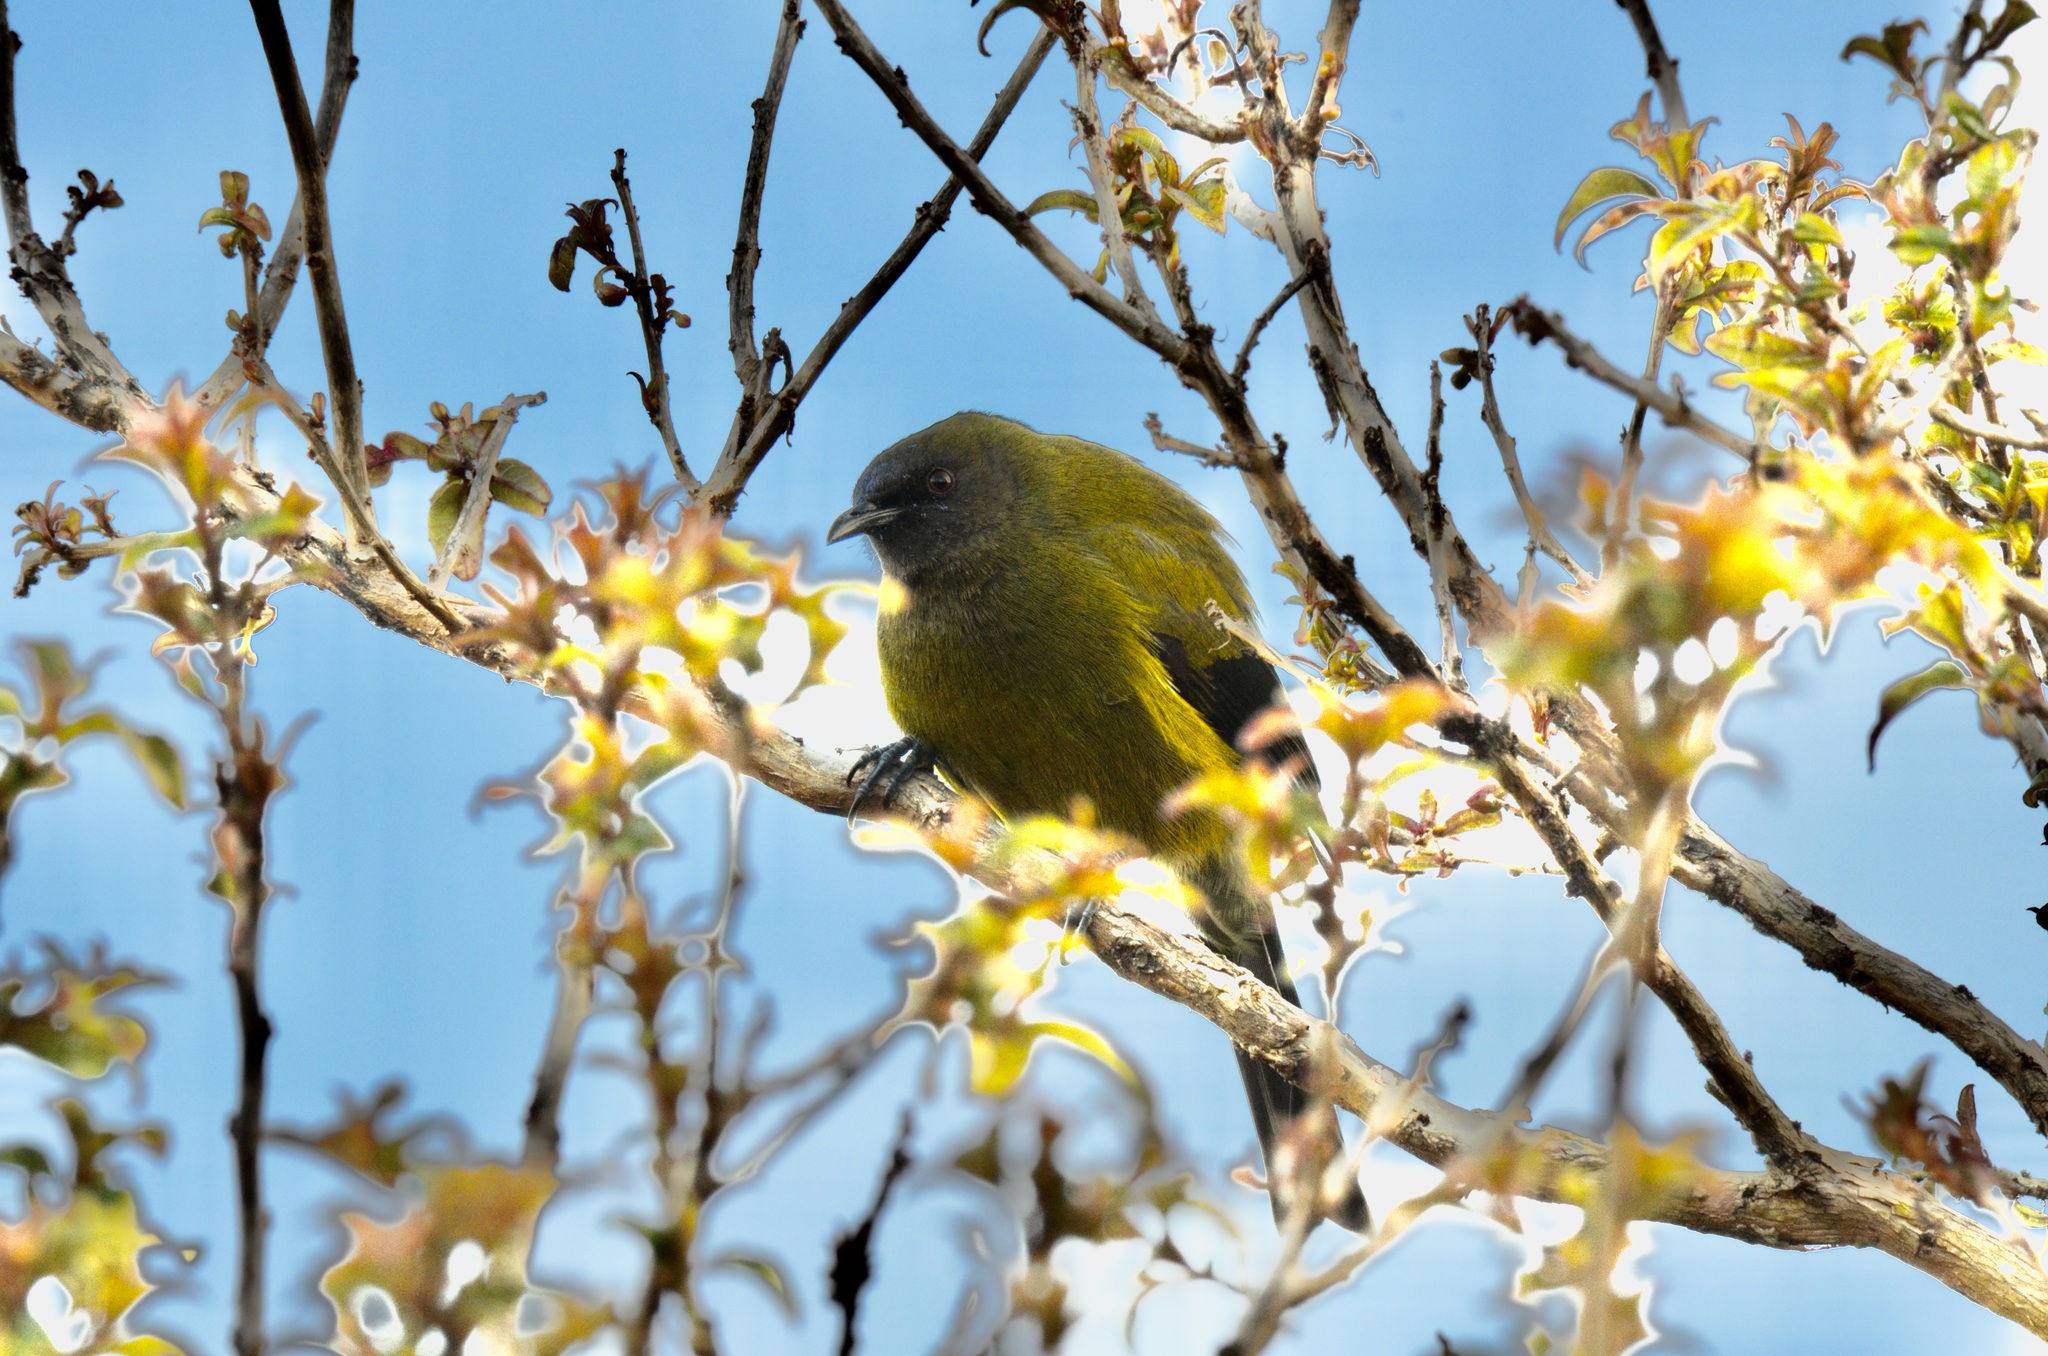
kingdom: Animalia
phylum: Chordata
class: Aves
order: Passeriformes
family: Meliphagidae
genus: Anthornis
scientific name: Anthornis melanura
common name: New zealand bellbird
